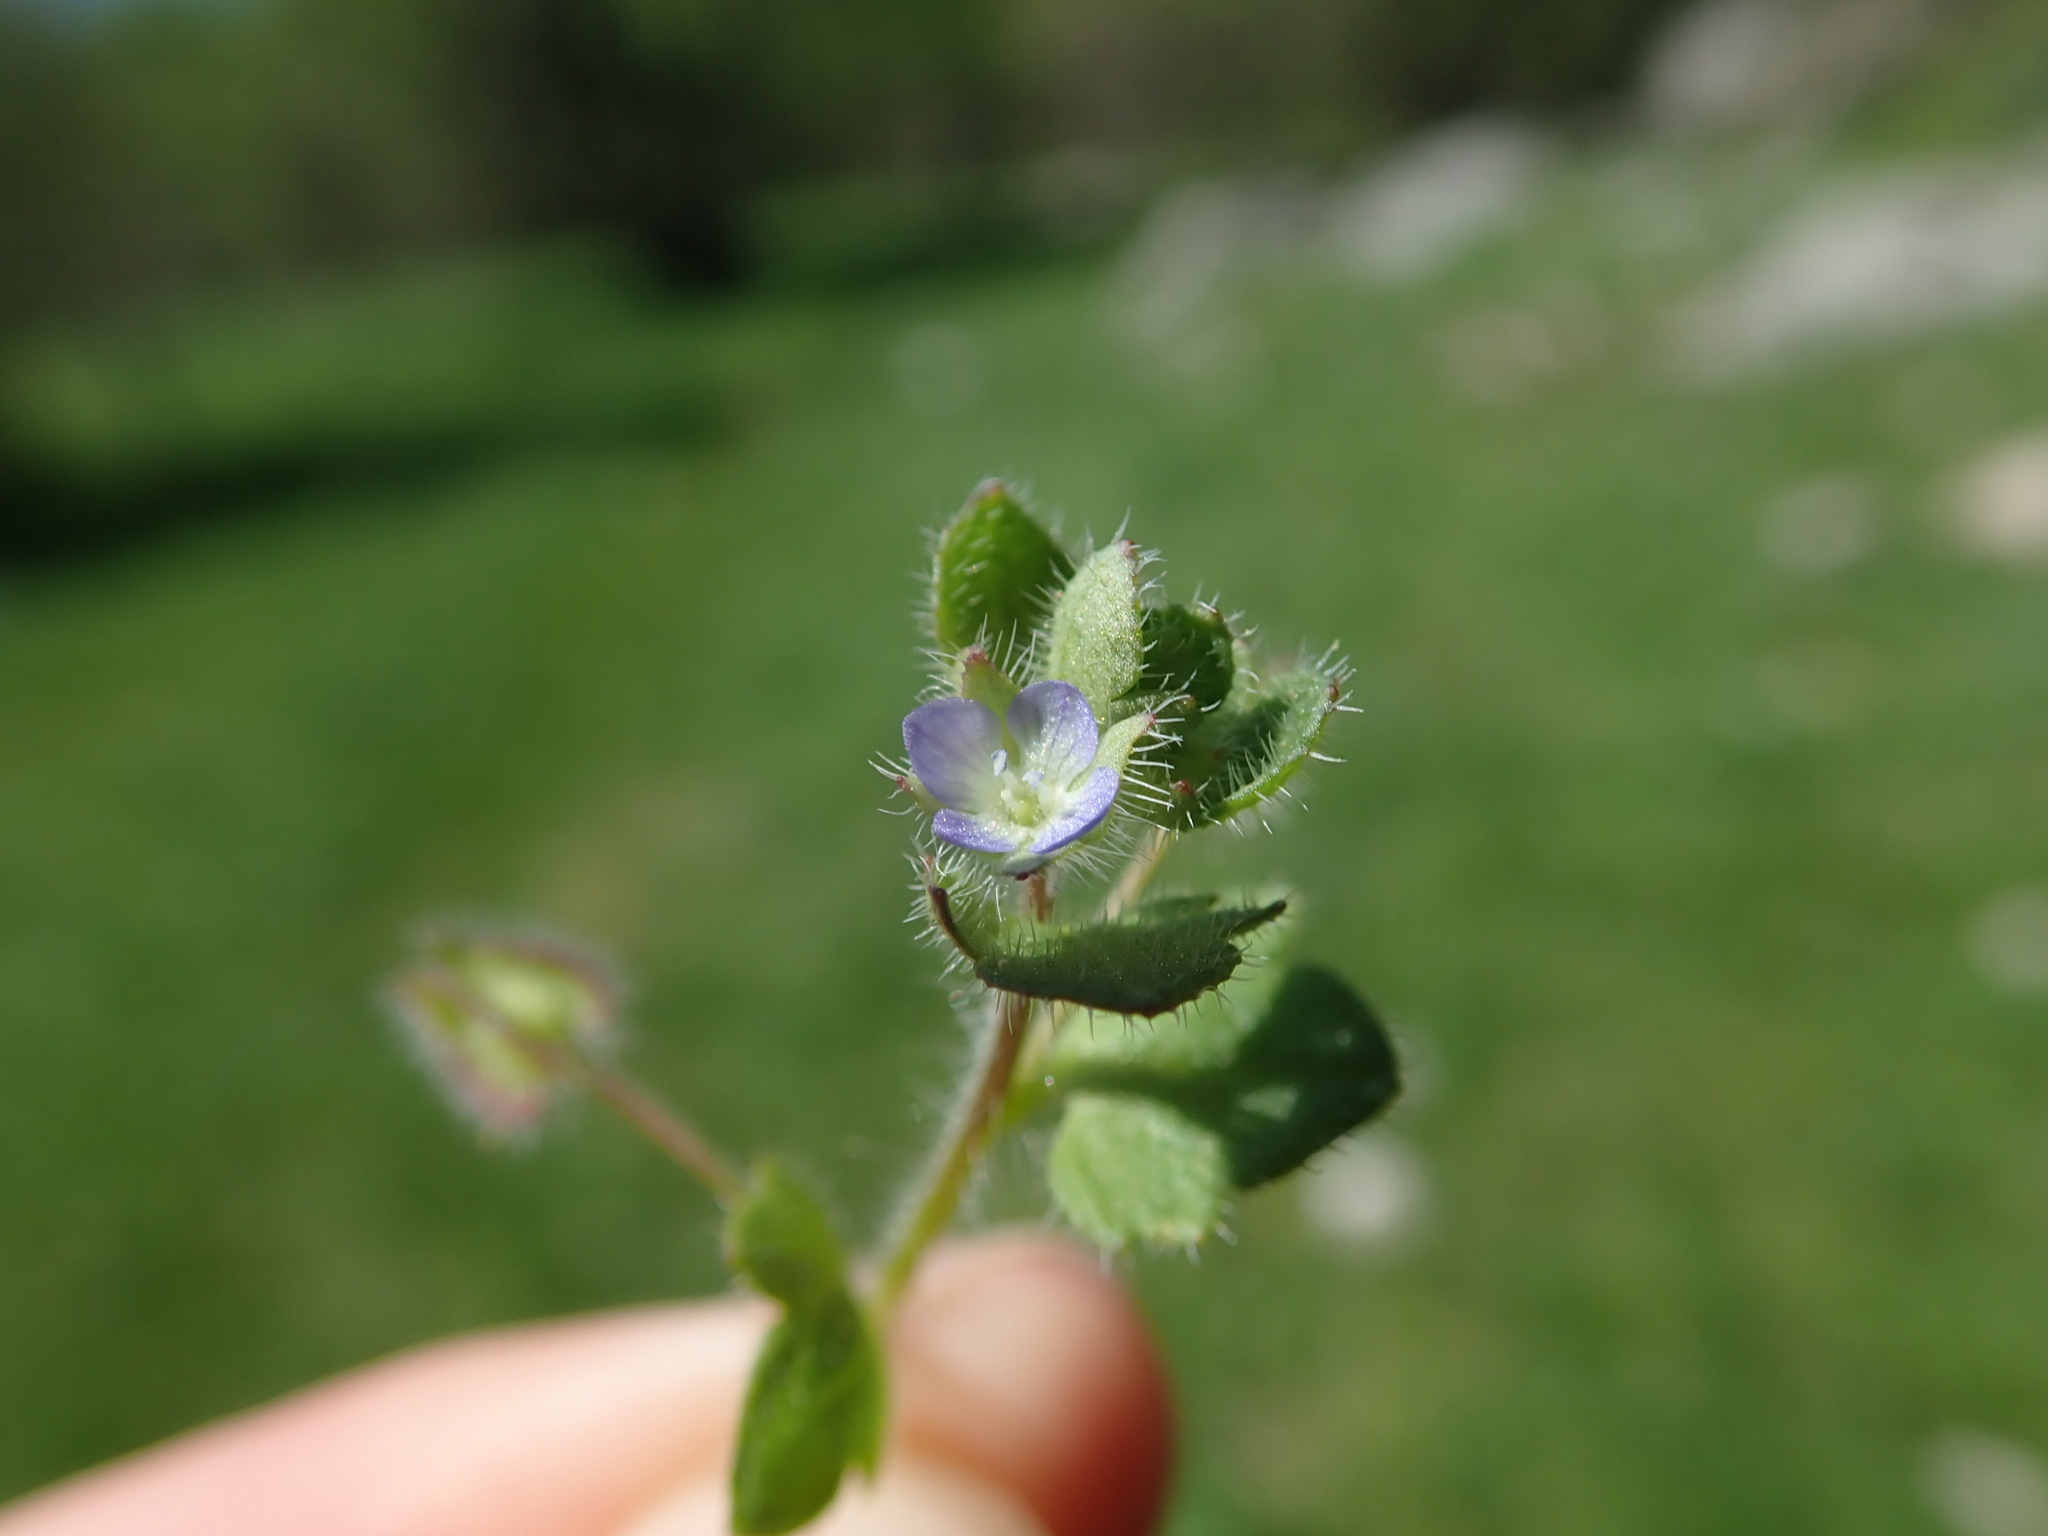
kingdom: Plantae
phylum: Tracheophyta
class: Magnoliopsida
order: Lamiales
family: Plantaginaceae
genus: Veronica
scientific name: Veronica hederifolia
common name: Ivy-leaved speedwell
